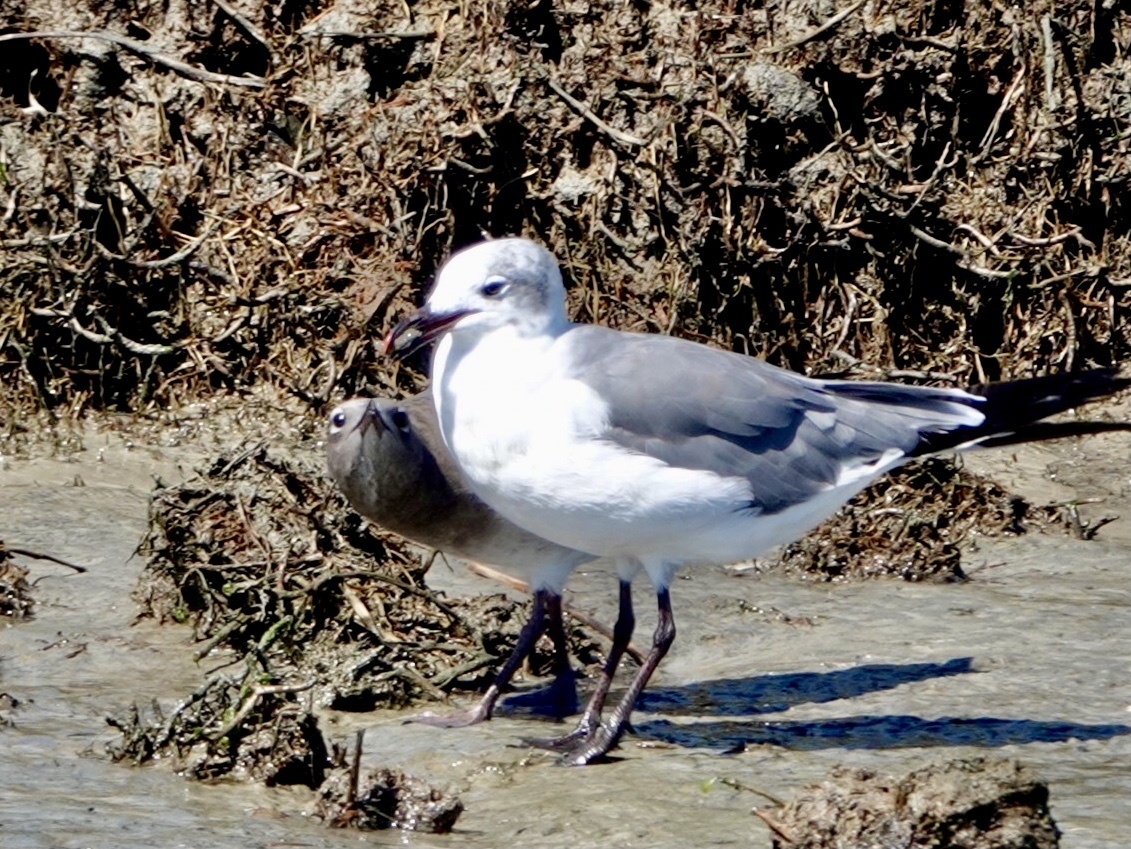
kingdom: Animalia
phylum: Chordata
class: Aves
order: Charadriiformes
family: Laridae
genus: Leucophaeus
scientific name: Leucophaeus atricilla
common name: Laughing gull
